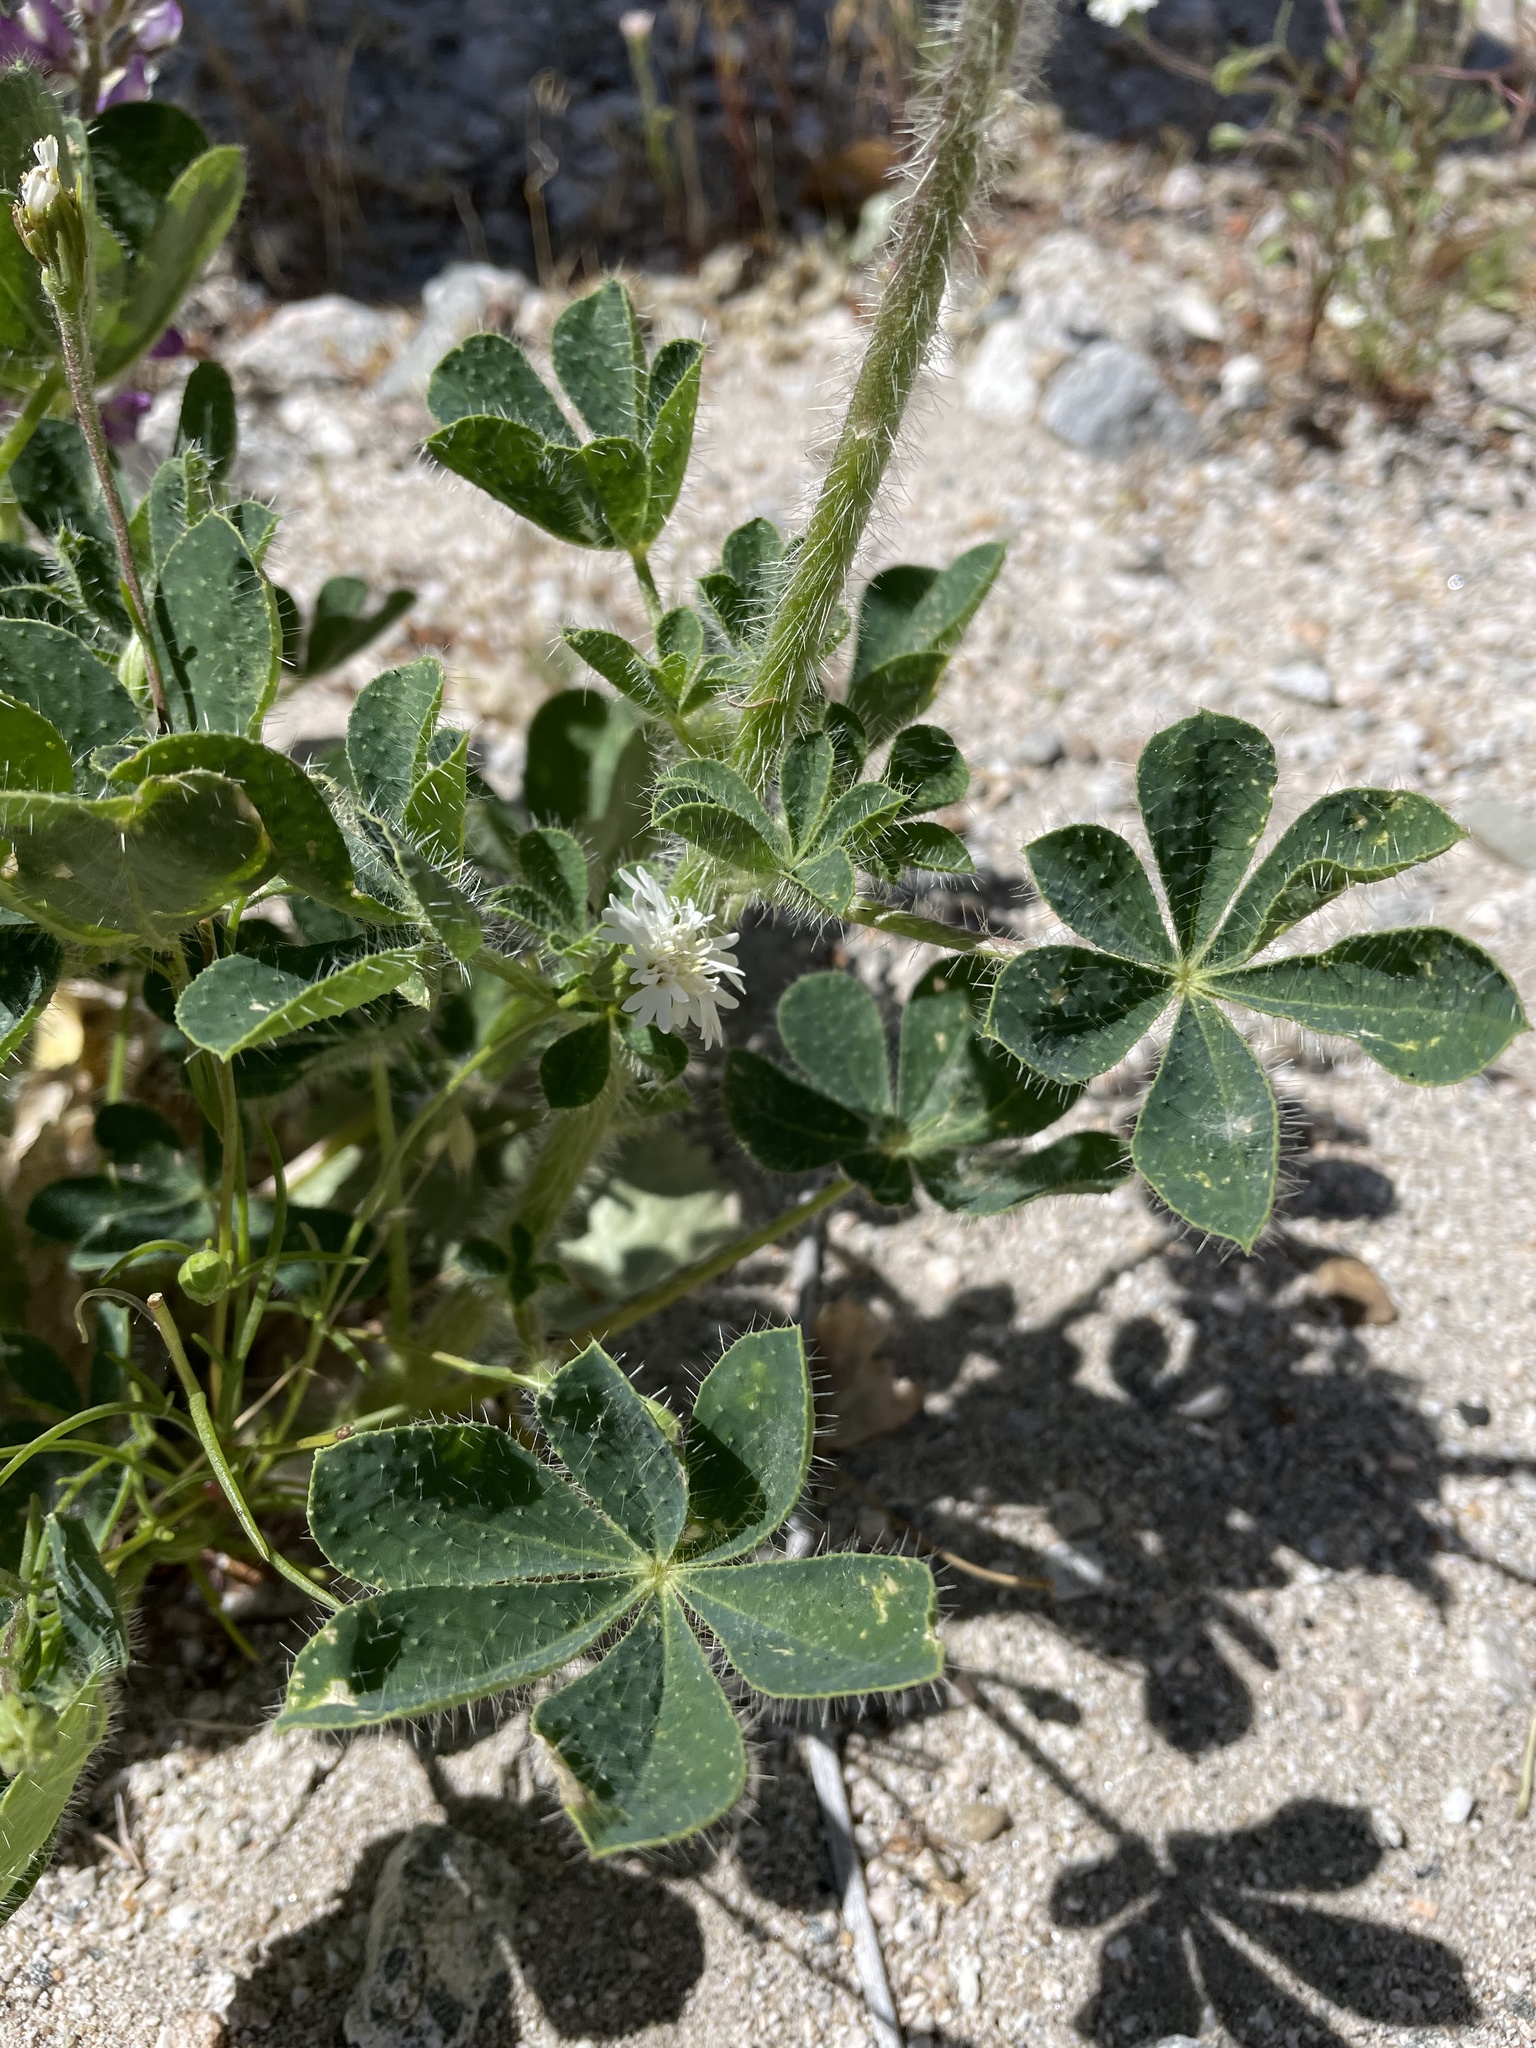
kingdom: Plantae
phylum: Tracheophyta
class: Magnoliopsida
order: Fabales
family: Fabaceae
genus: Lupinus
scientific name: Lupinus hirsutissimus
